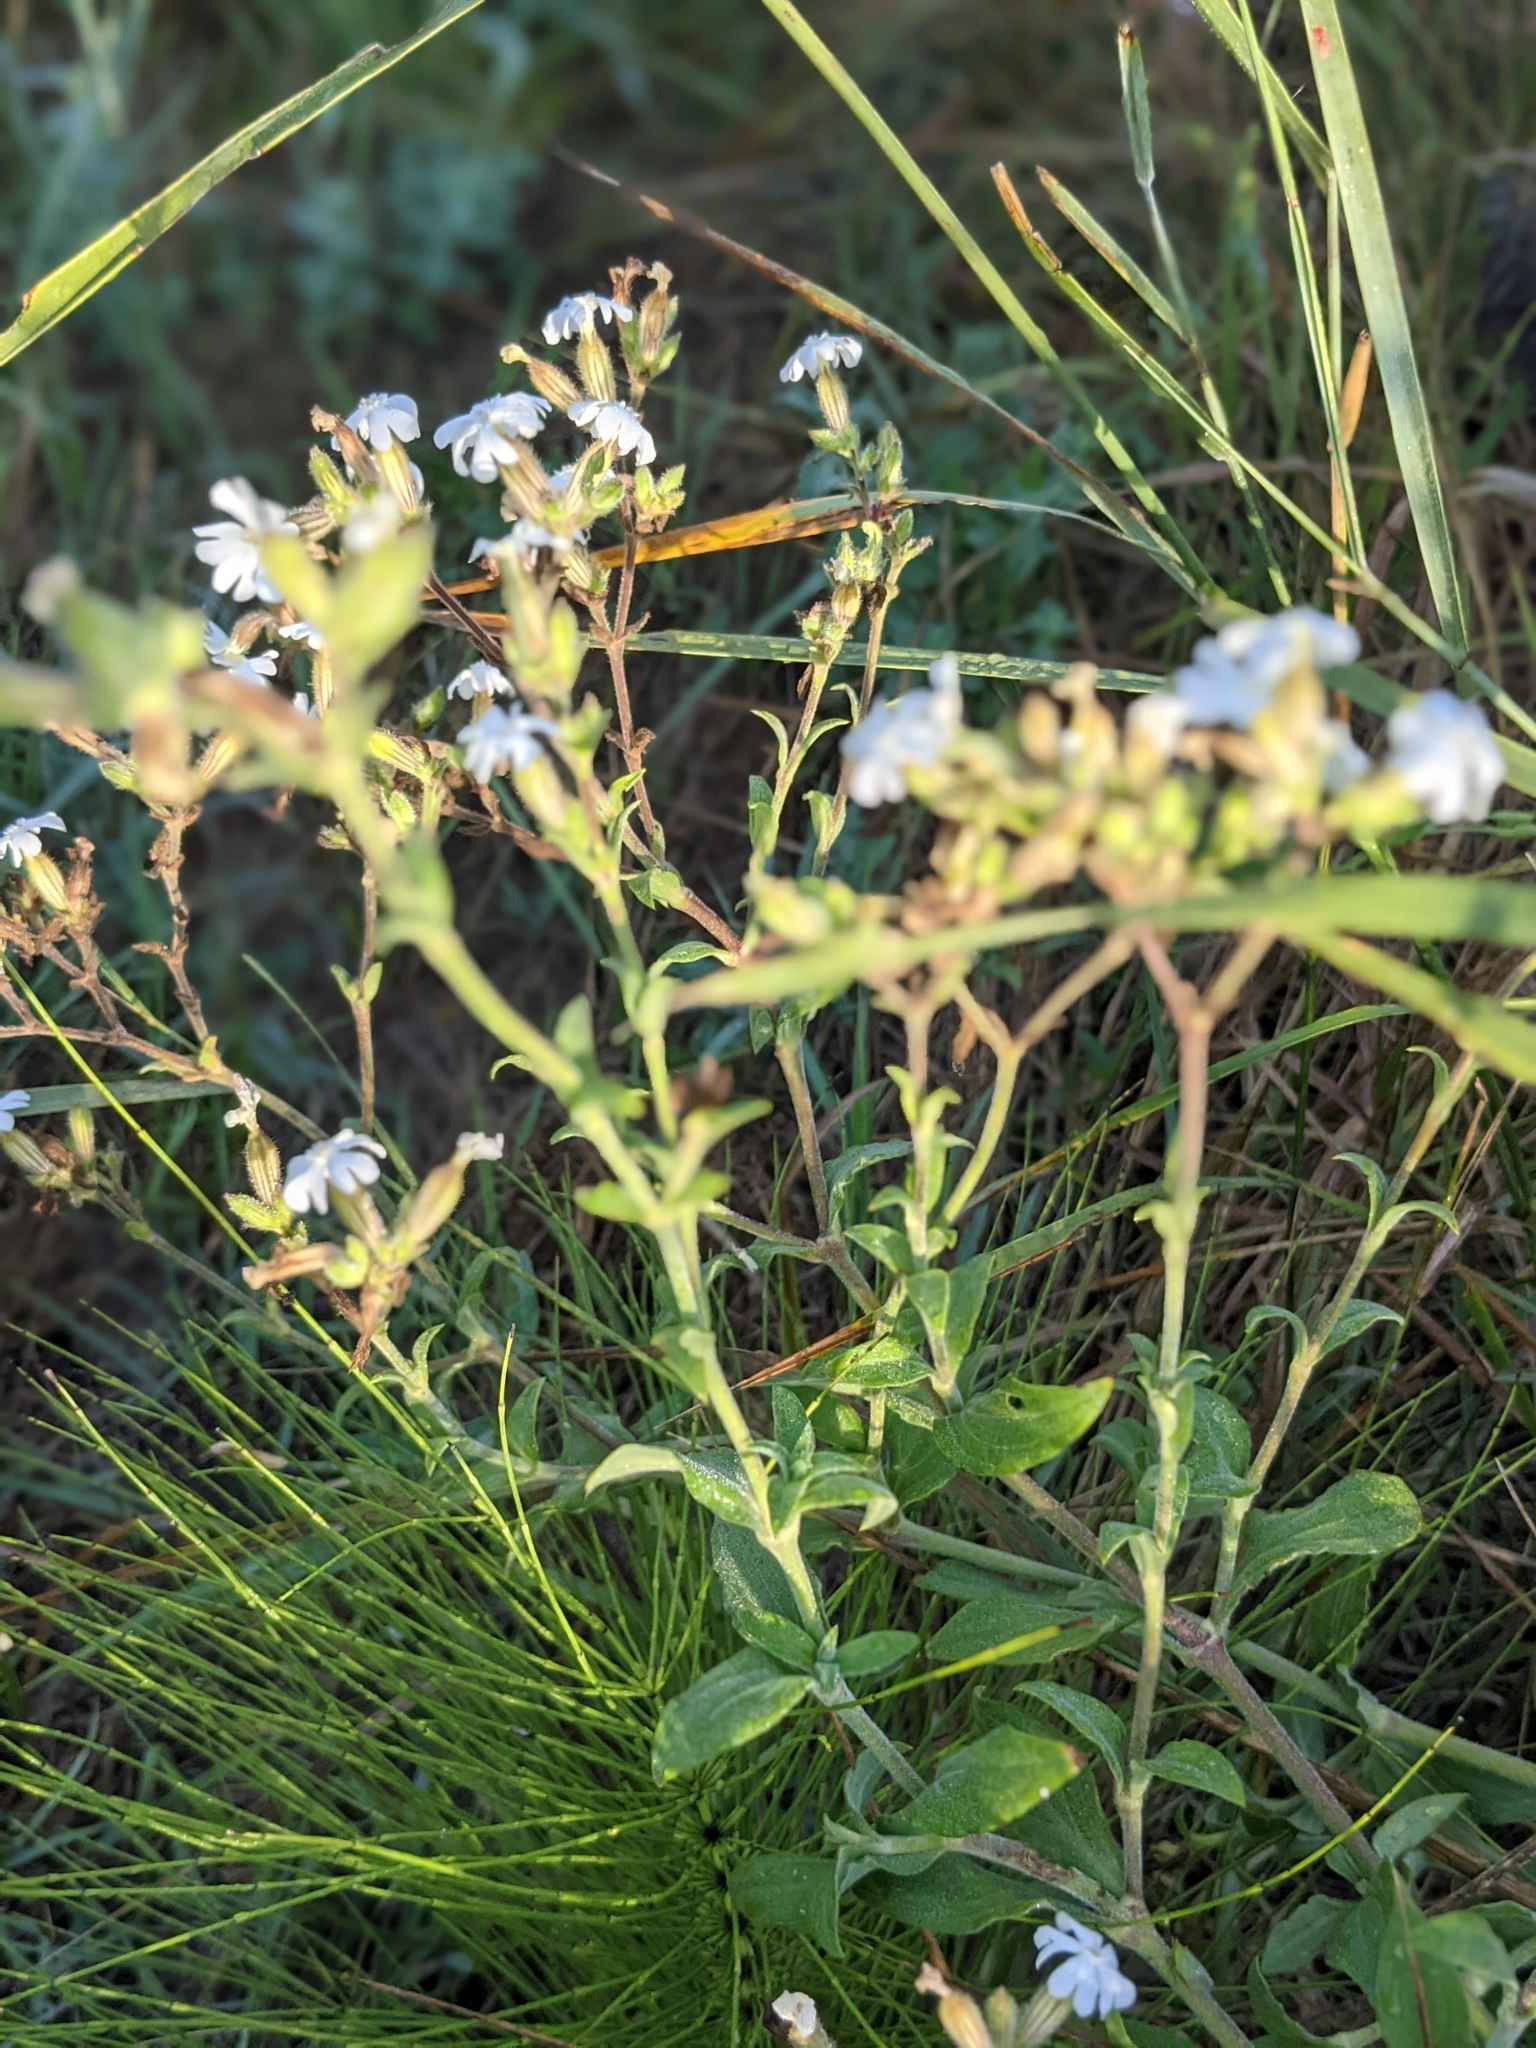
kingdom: Plantae
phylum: Tracheophyta
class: Magnoliopsida
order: Caryophyllales
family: Caryophyllaceae
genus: Silene
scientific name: Silene latifolia
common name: White campion
